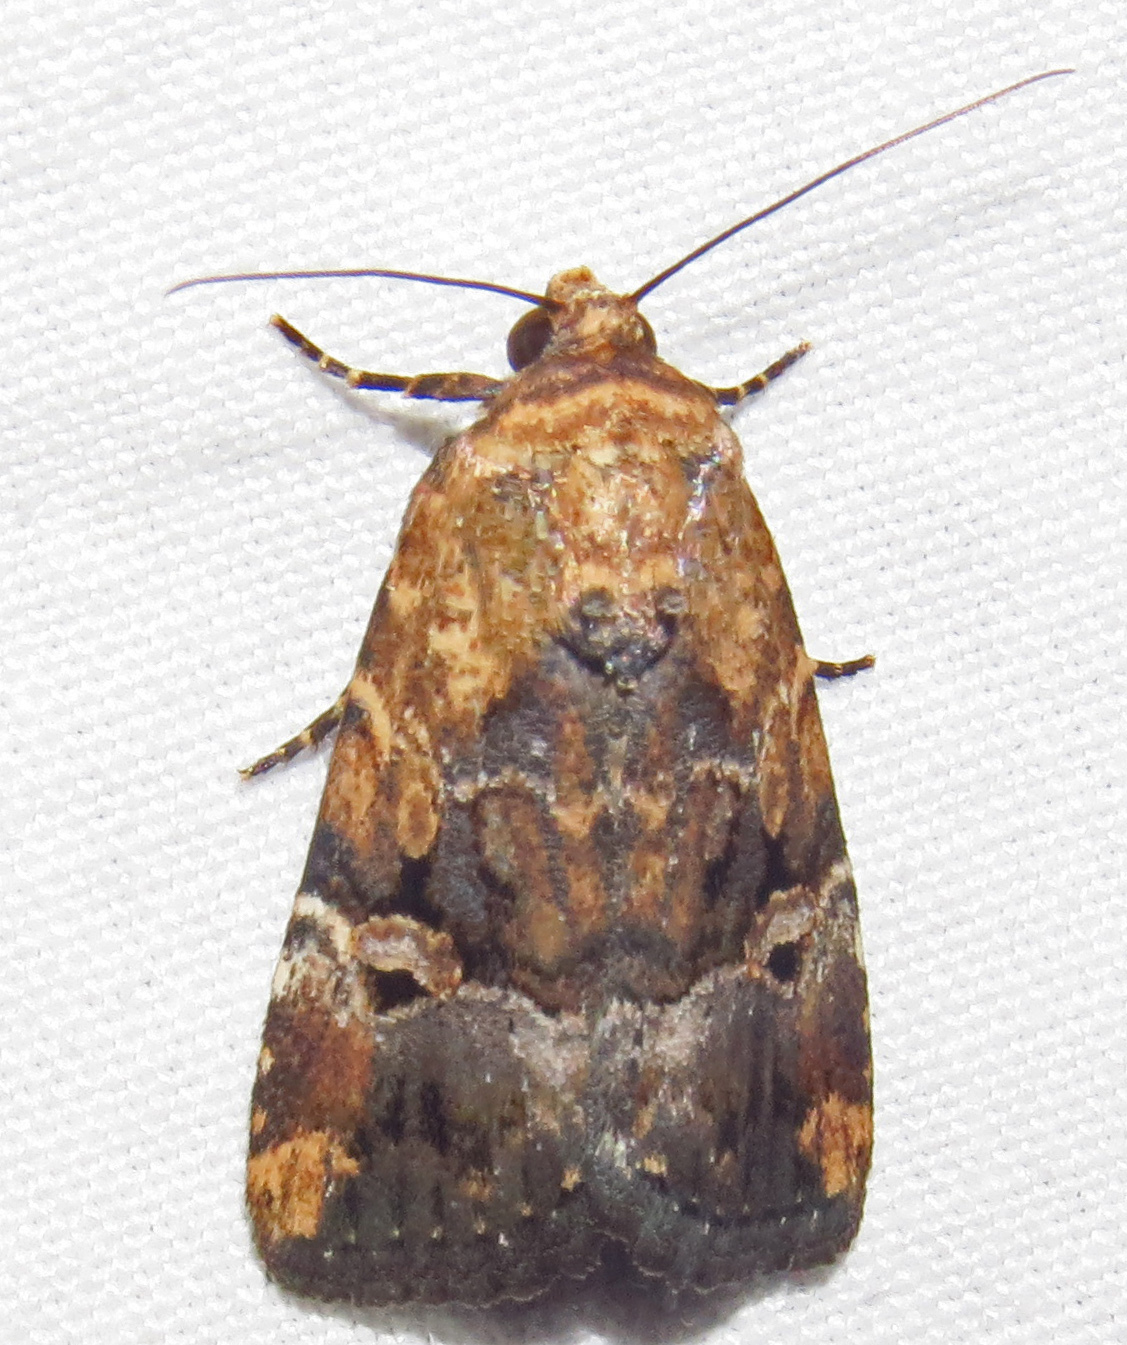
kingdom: Animalia
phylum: Arthropoda
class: Insecta
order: Lepidoptera
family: Noctuidae
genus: Elaphria
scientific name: Elaphria chalcedonia
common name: Chalcedony midget
